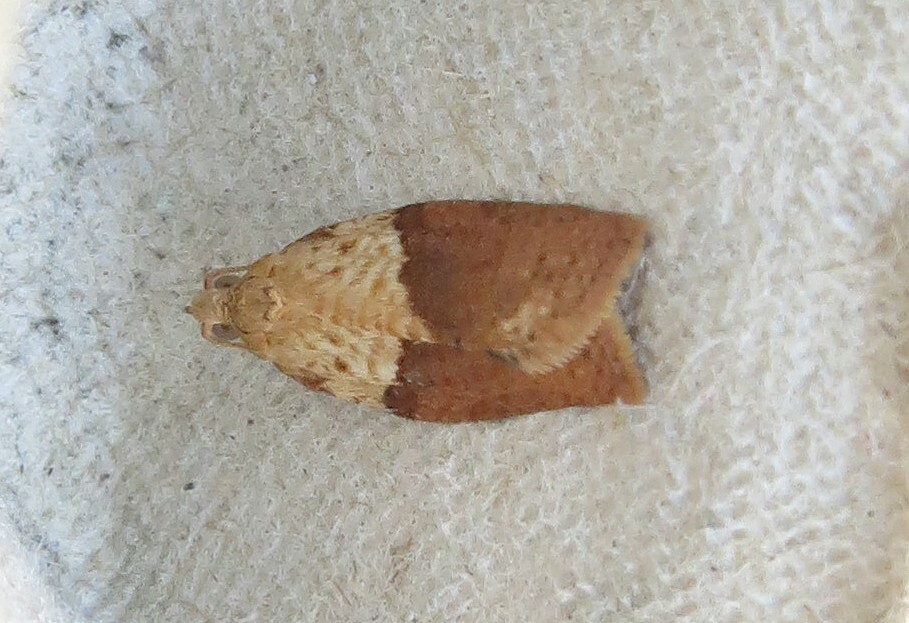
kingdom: Animalia
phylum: Arthropoda
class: Insecta
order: Lepidoptera
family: Tortricidae
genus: Epiphyas
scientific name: Epiphyas postvittana
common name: Light brown apple moth
